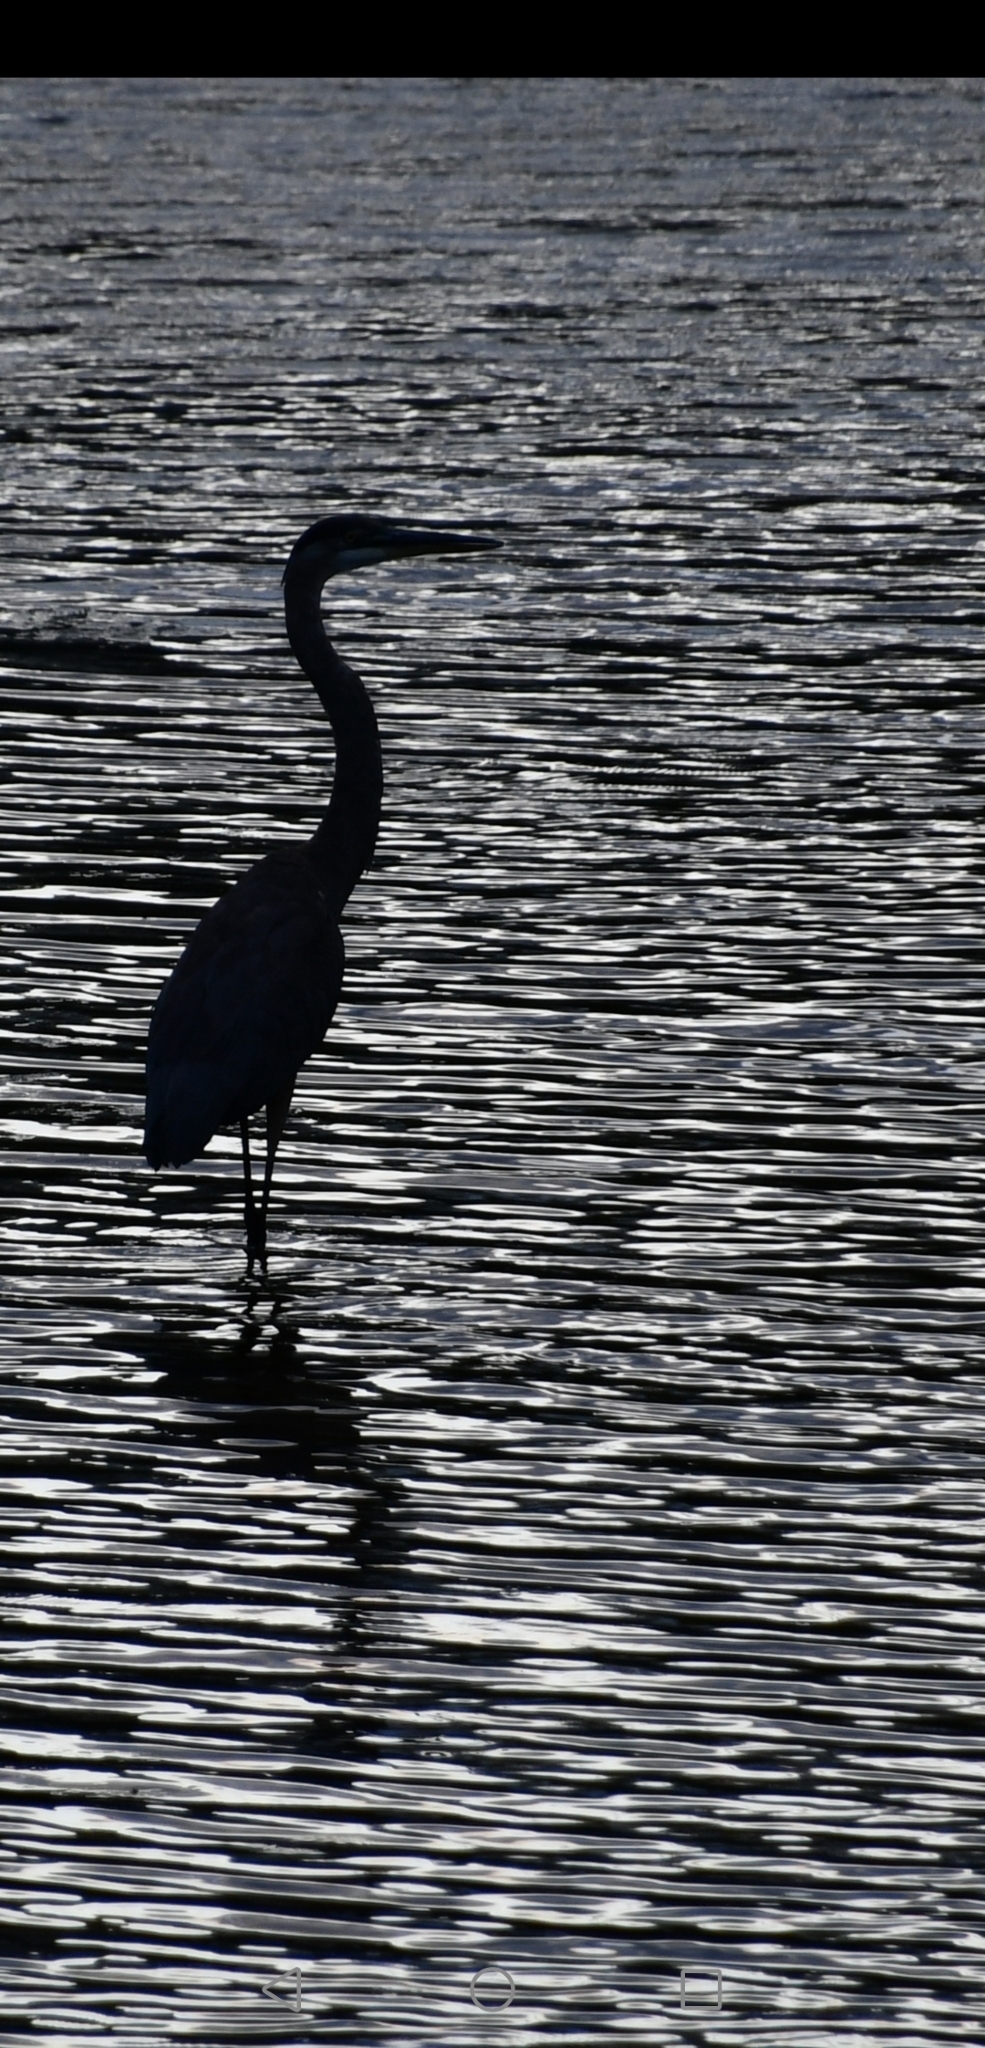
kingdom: Animalia
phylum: Chordata
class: Aves
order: Pelecaniformes
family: Ardeidae
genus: Ardea
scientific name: Ardea herodias
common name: Great blue heron
